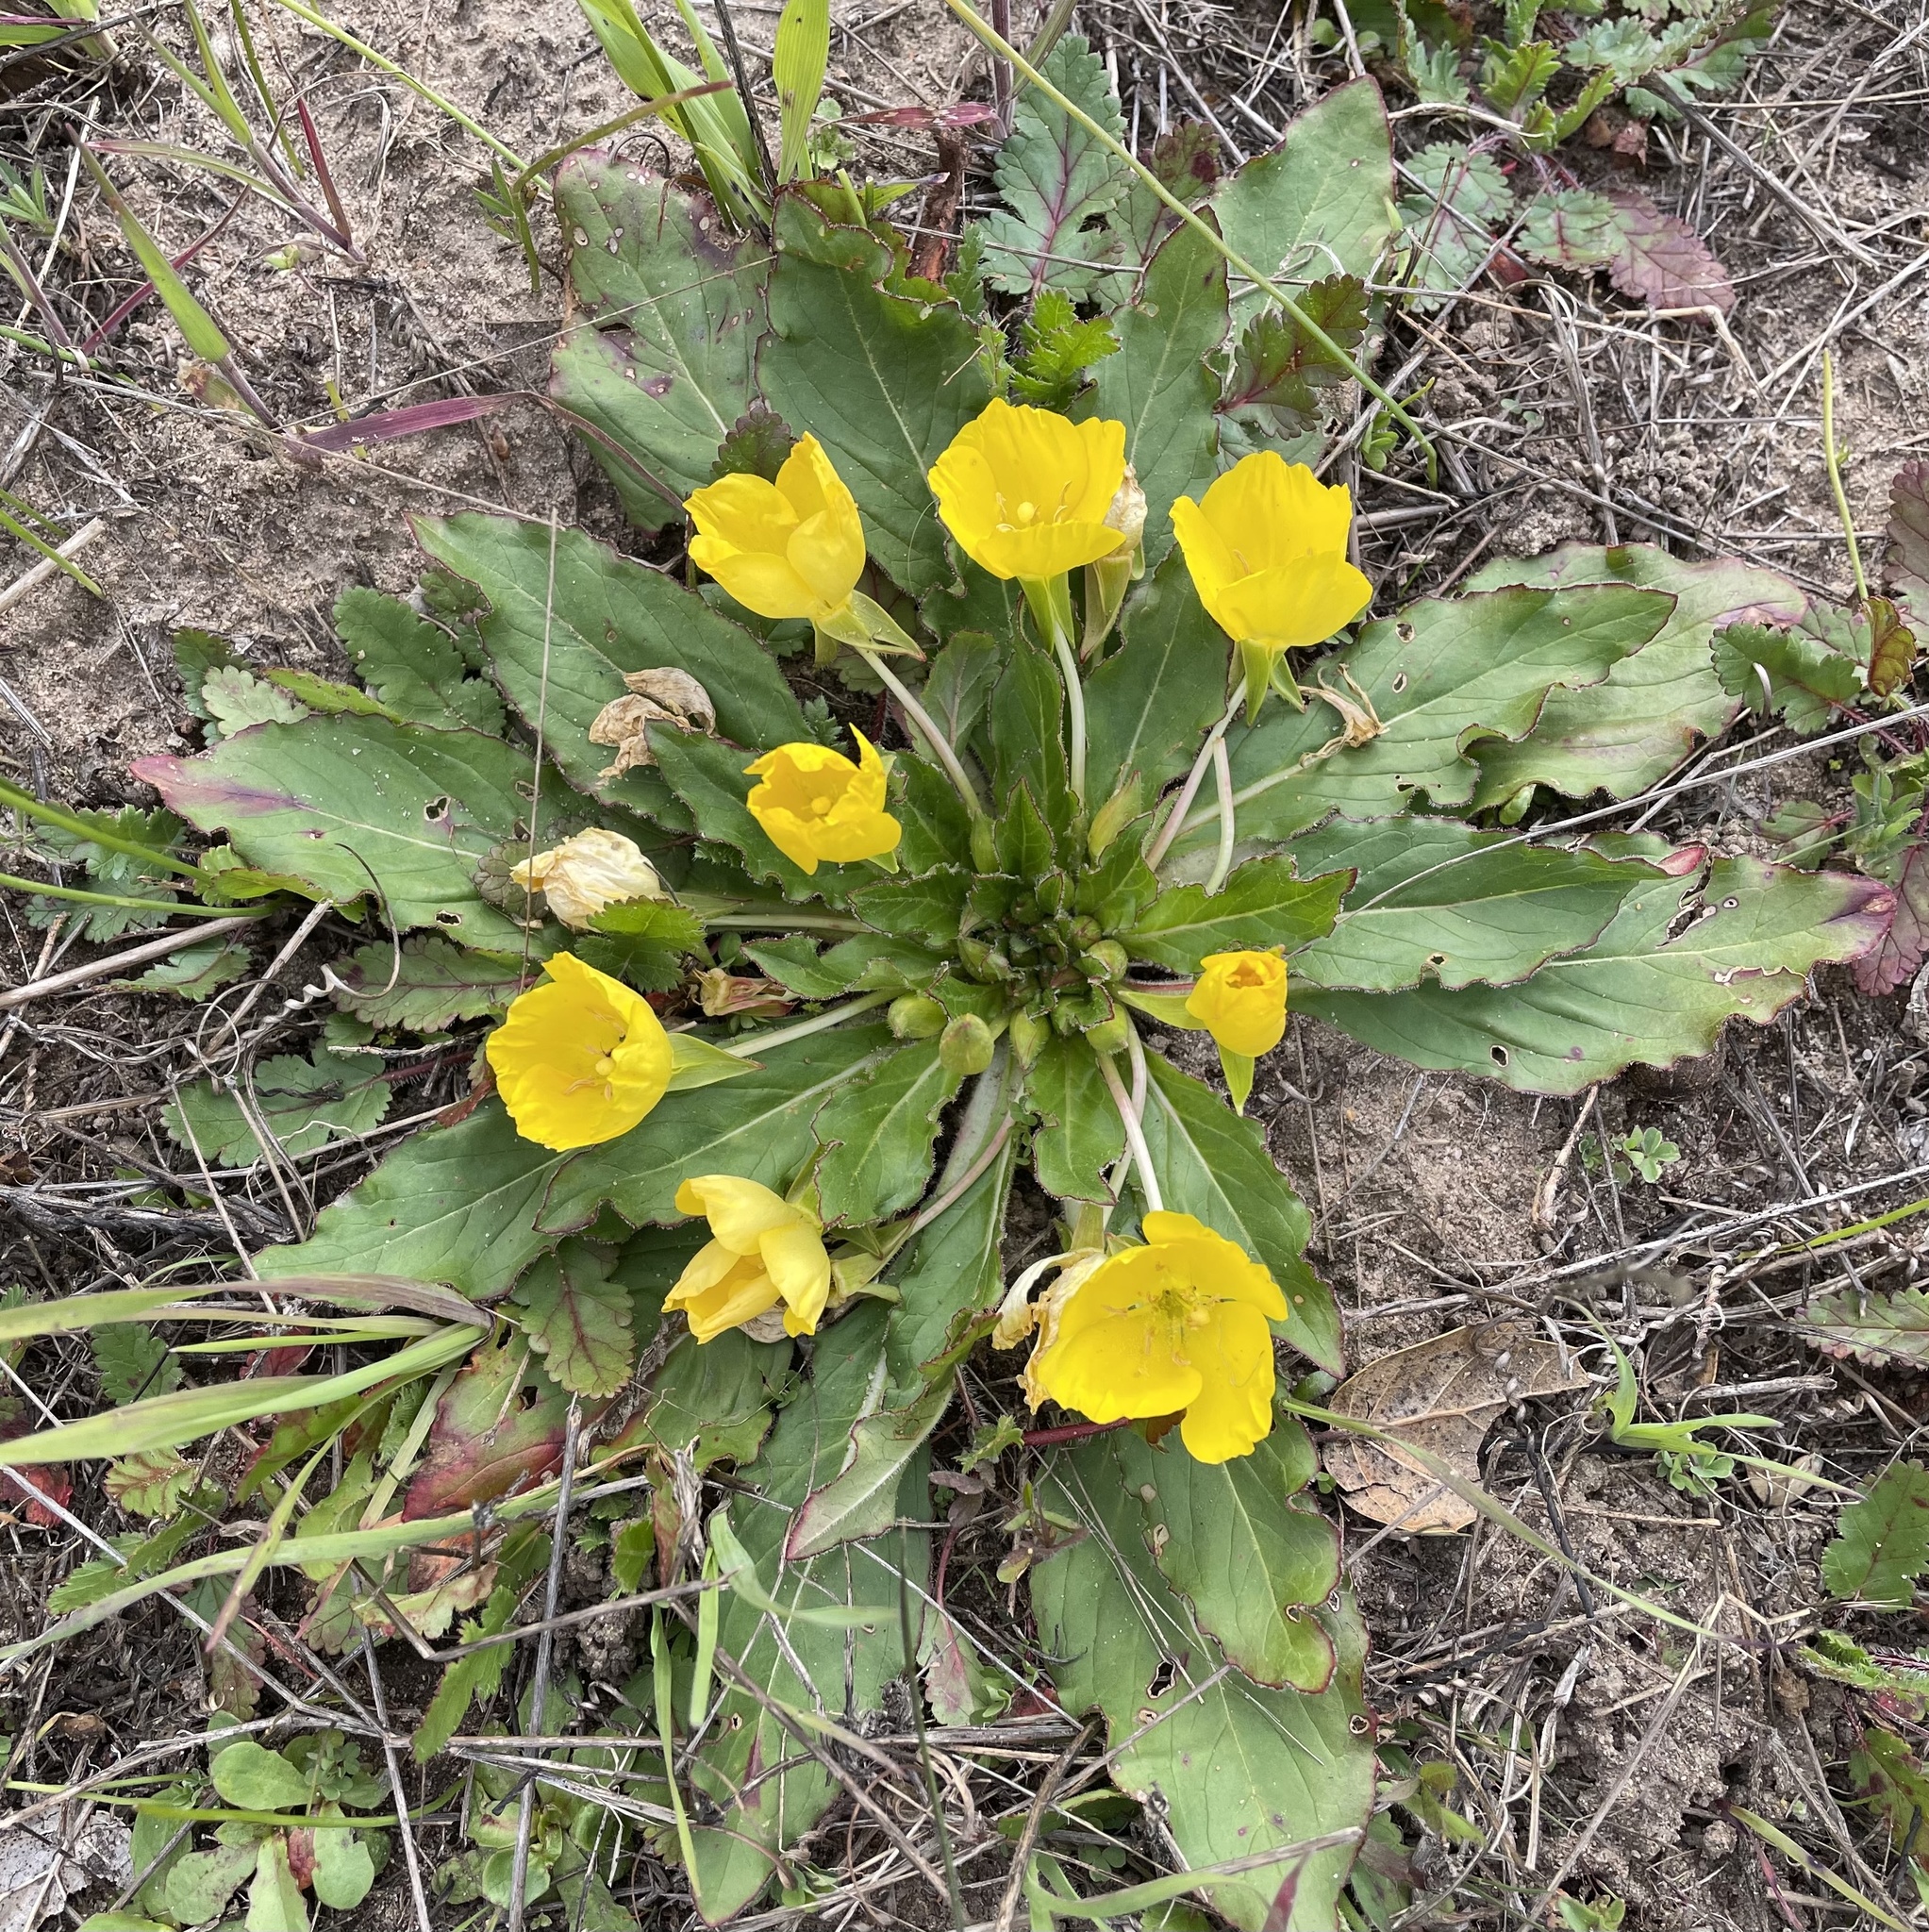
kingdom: Plantae
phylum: Tracheophyta
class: Magnoliopsida
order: Myrtales
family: Onagraceae
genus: Taraxia
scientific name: Taraxia ovata
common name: Goldeneggs
